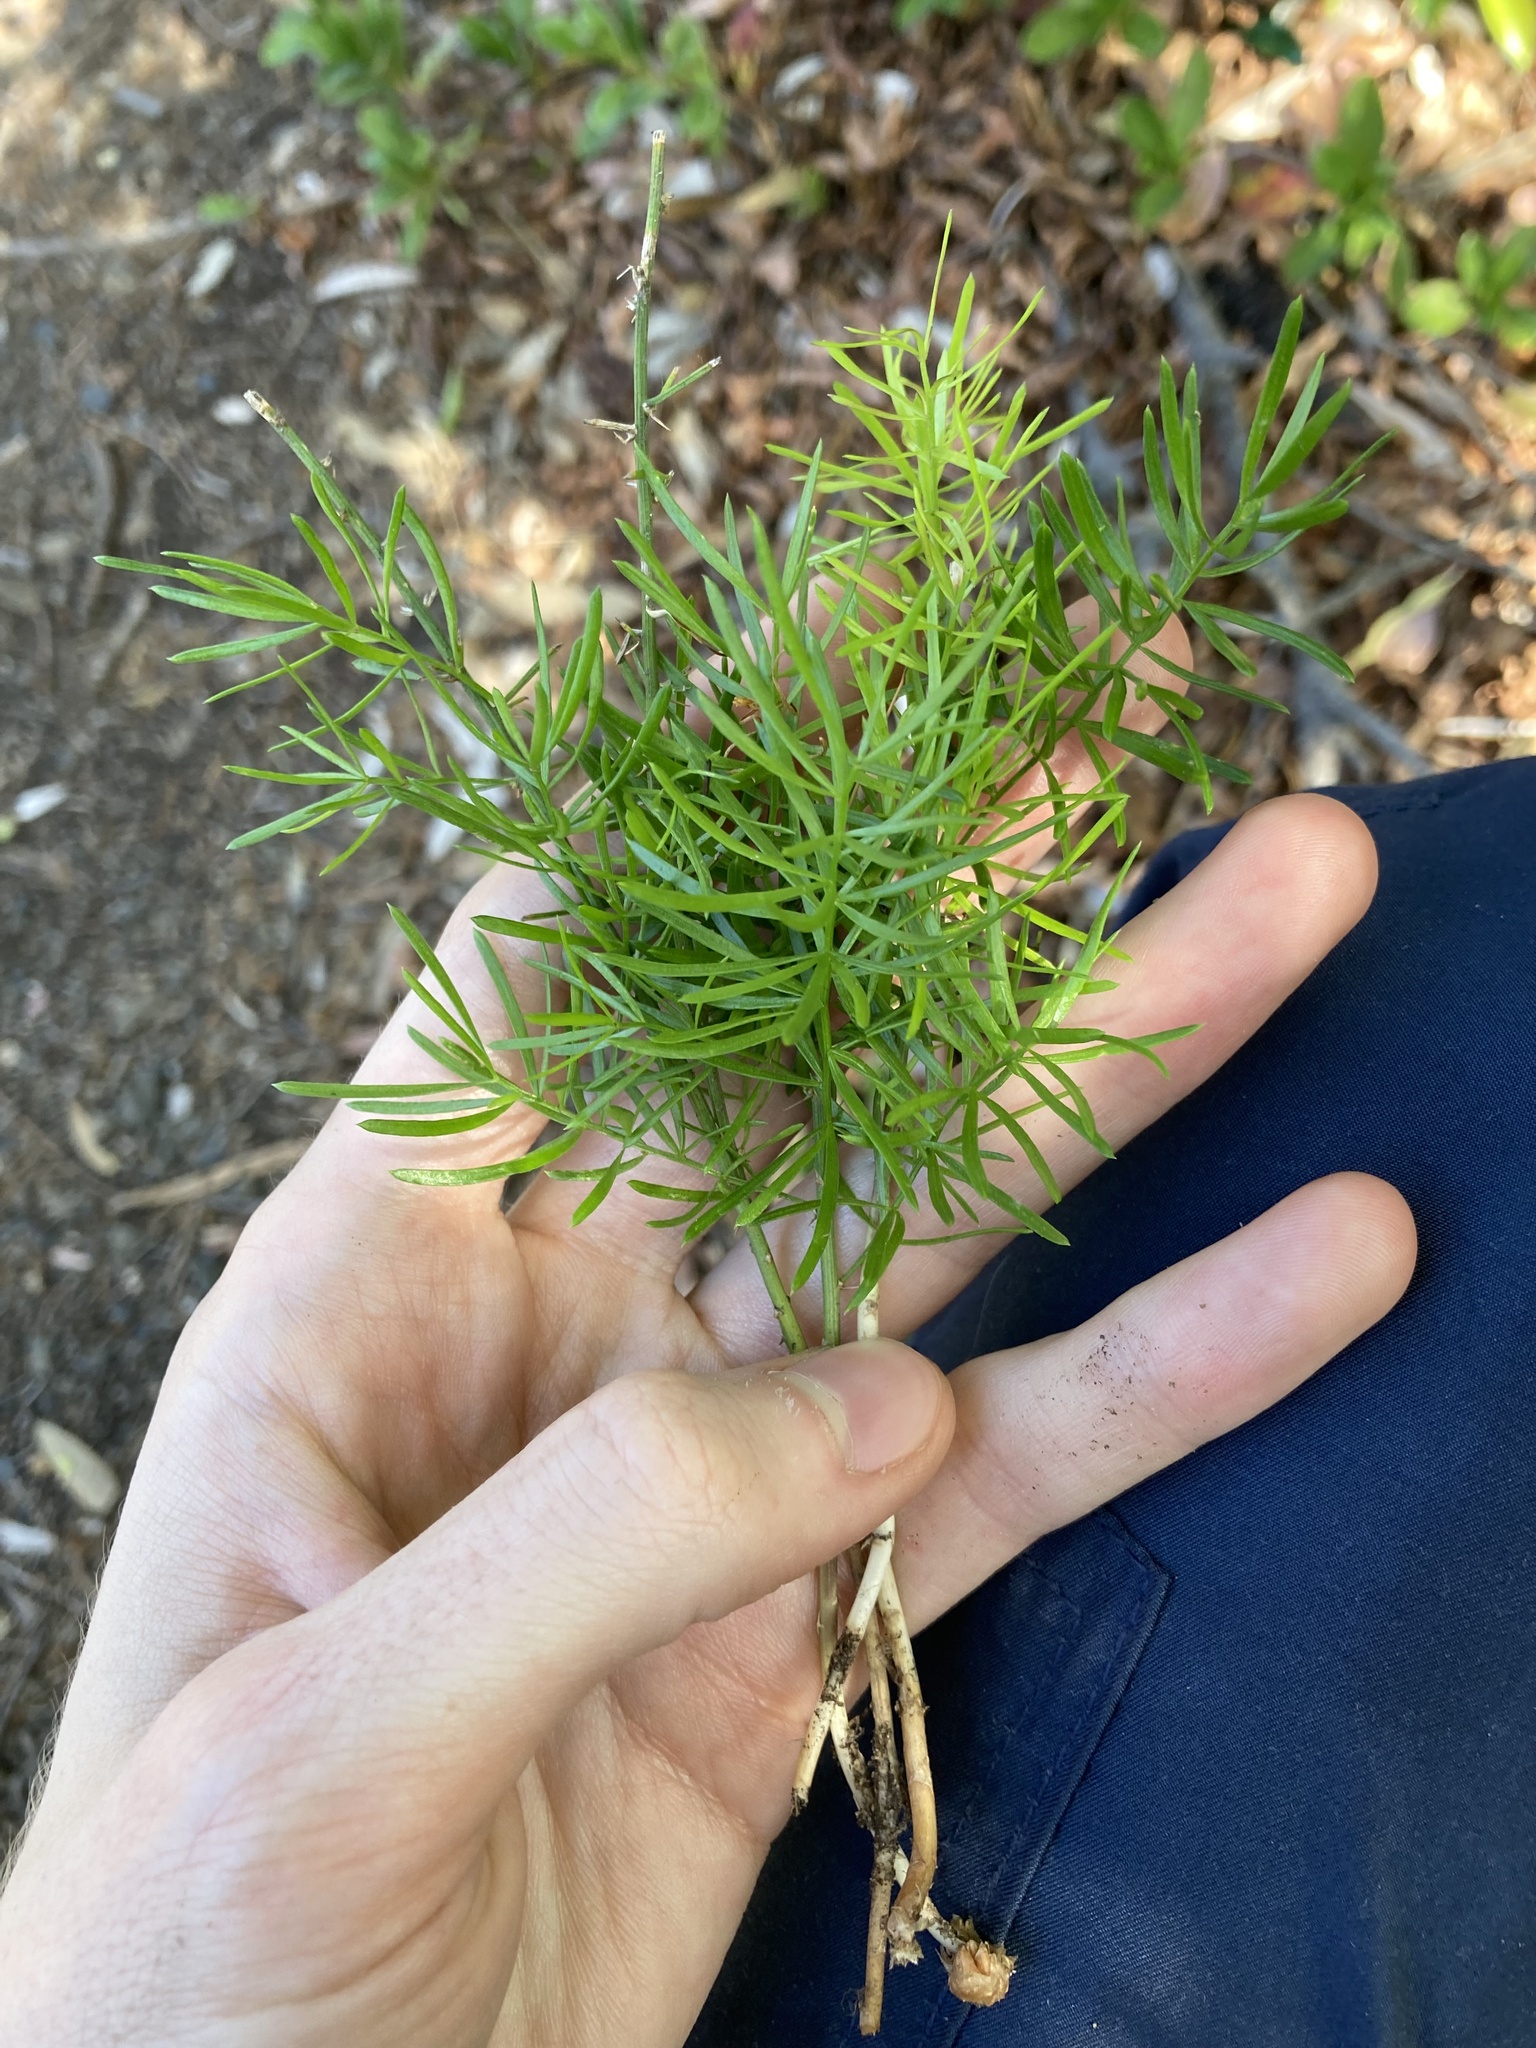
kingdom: Plantae
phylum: Tracheophyta
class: Liliopsida
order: Asparagales
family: Asparagaceae
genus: Asparagus
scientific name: Asparagus aethiopicus
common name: Sprenger's asparagus fern
